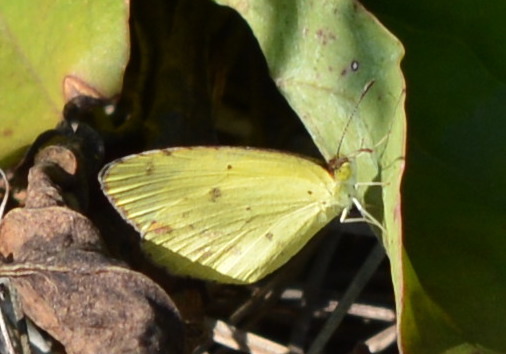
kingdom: Animalia
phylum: Arthropoda
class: Insecta
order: Lepidoptera
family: Pieridae
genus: Pyrisitia
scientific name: Pyrisitia lisa
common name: Little yellow
